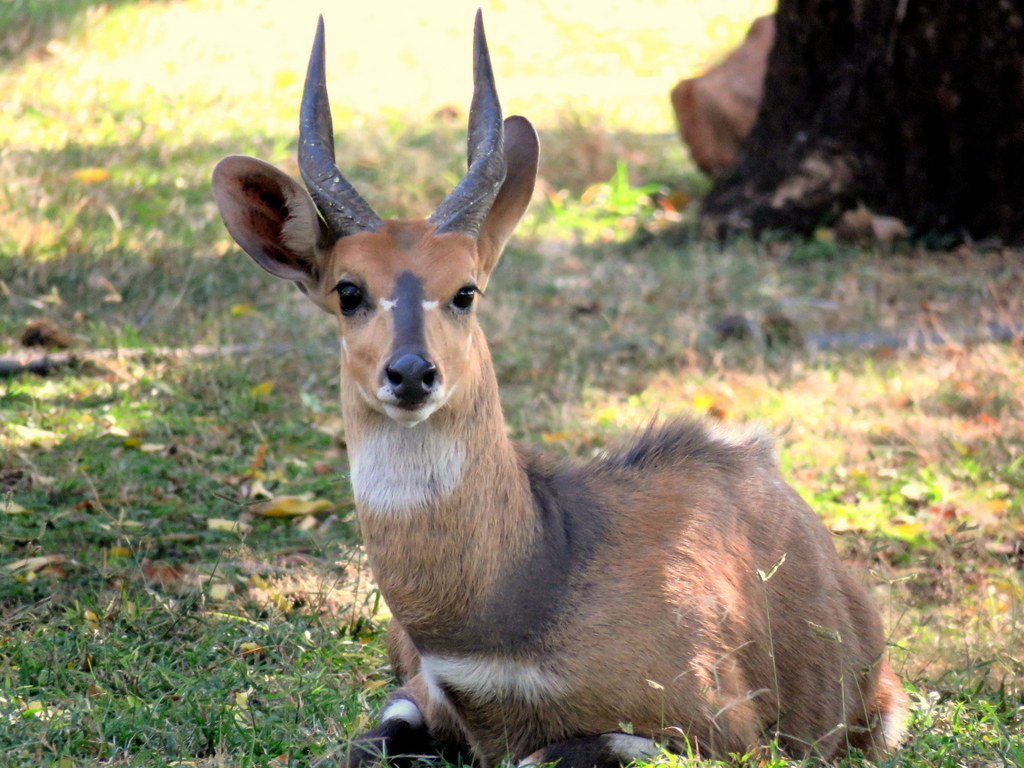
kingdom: Animalia
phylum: Chordata
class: Mammalia
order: Artiodactyla
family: Bovidae
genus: Tragelaphus
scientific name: Tragelaphus scriptus
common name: Bushbuck
